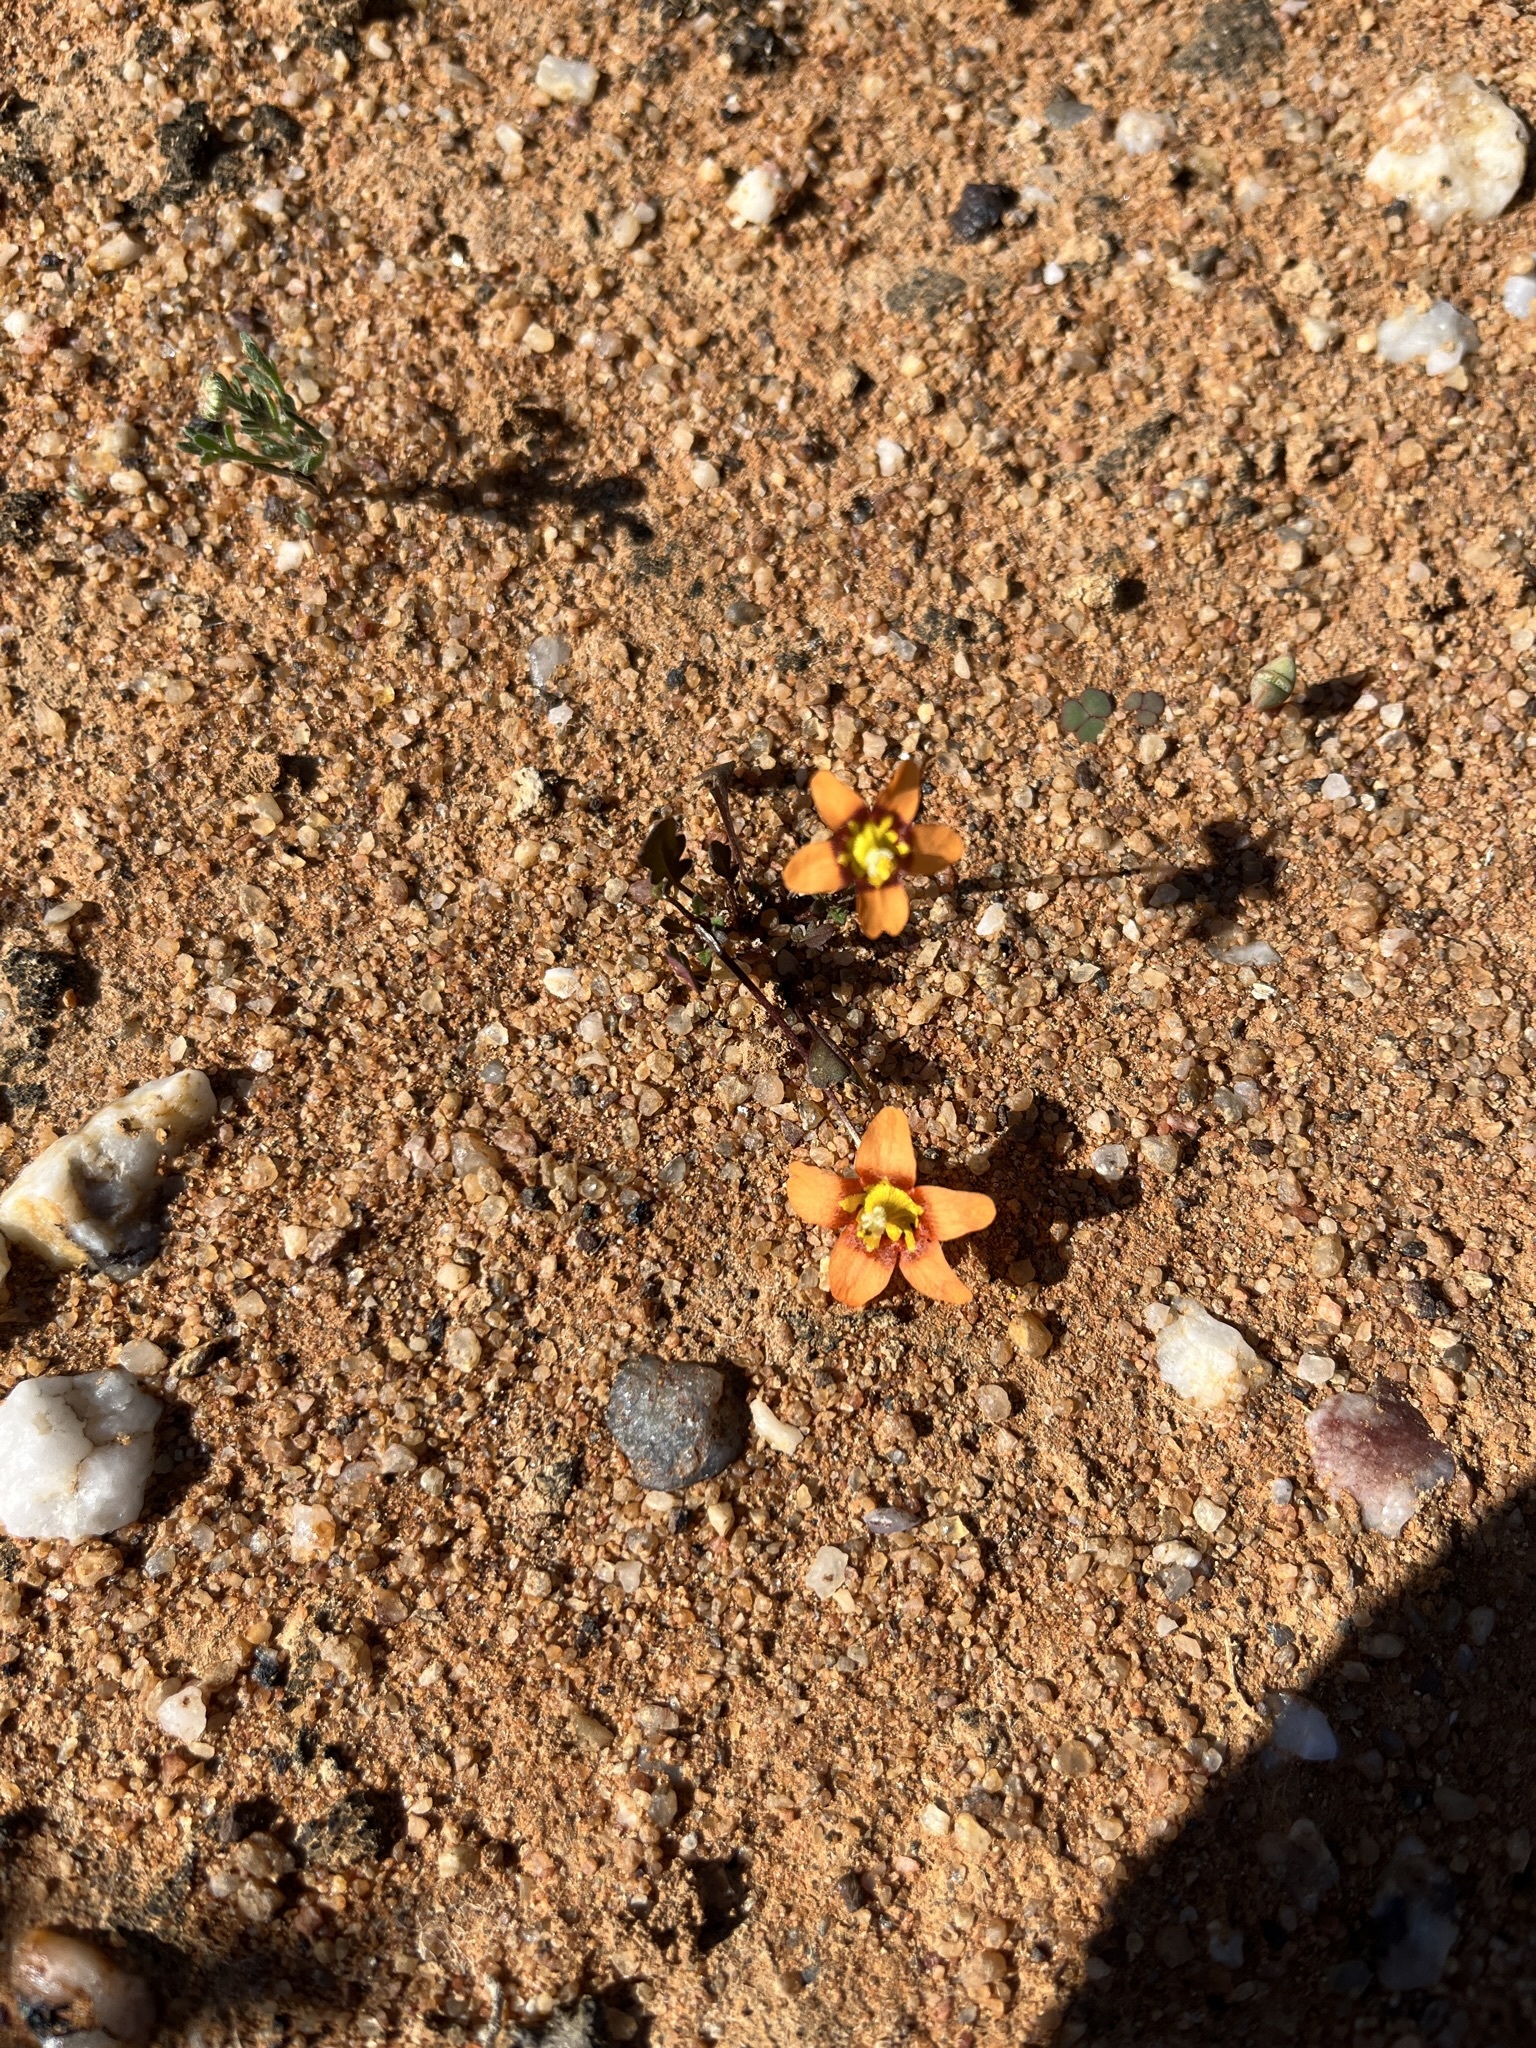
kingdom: Plantae
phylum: Tracheophyta
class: Magnoliopsida
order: Lamiales
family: Scrophulariaceae
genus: Diascia
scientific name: Diascia rudolphii
